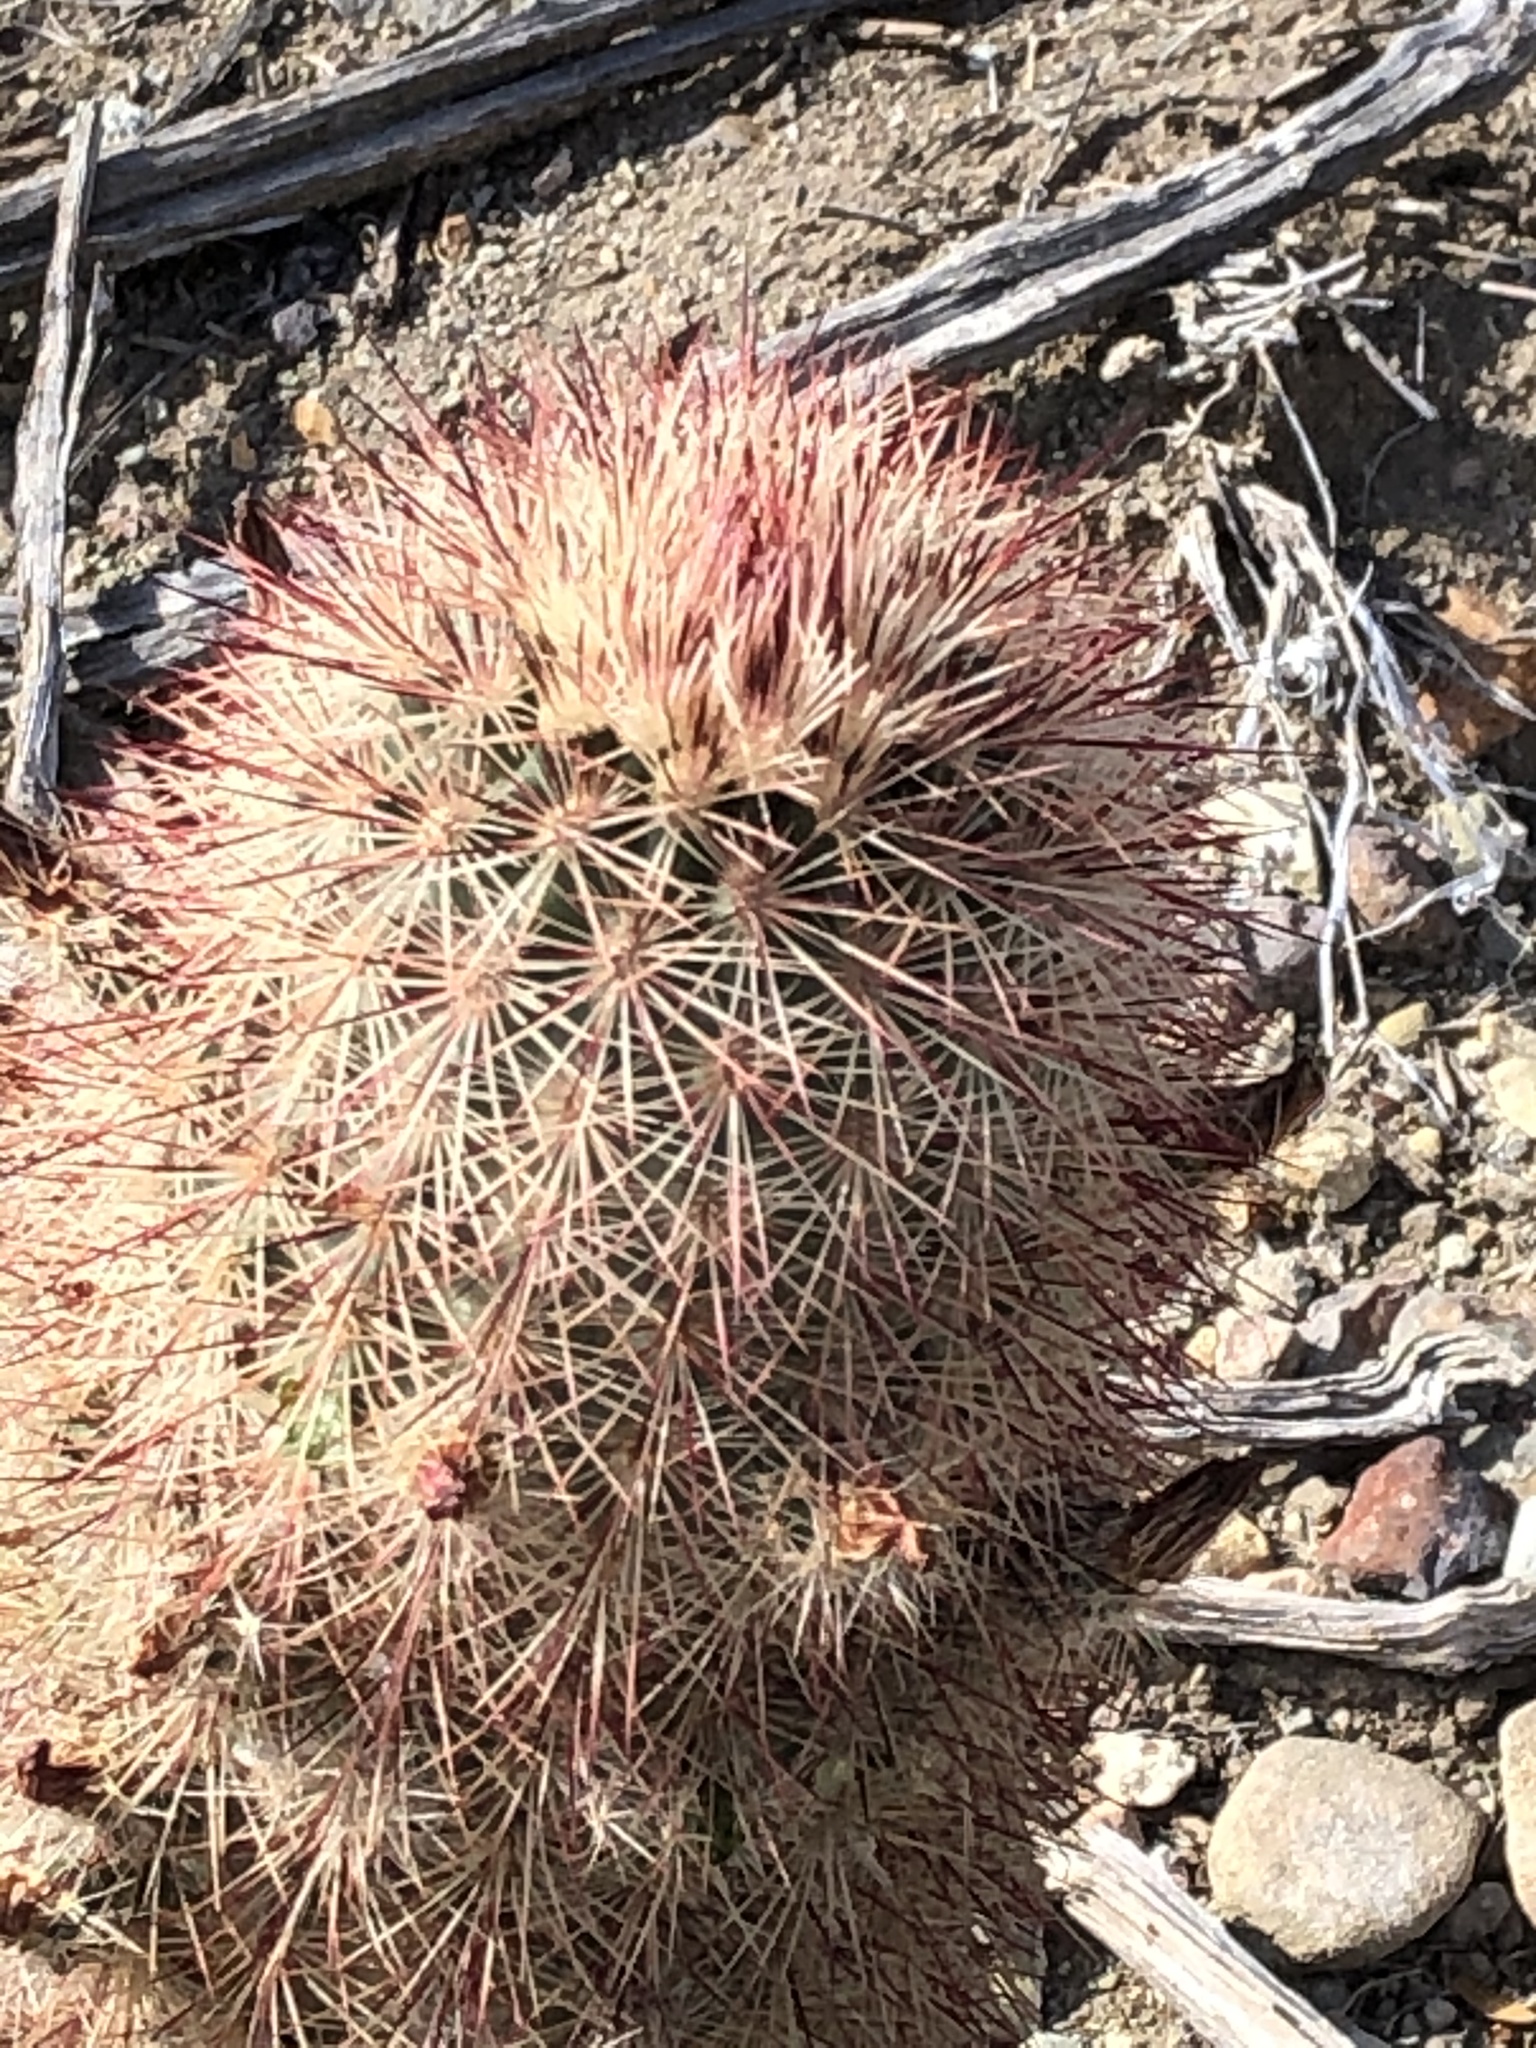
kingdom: Plantae
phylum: Tracheophyta
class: Magnoliopsida
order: Caryophyllales
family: Cactaceae
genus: Echinocereus
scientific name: Echinocereus russanthus
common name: Brownspine hedgehog cactus
